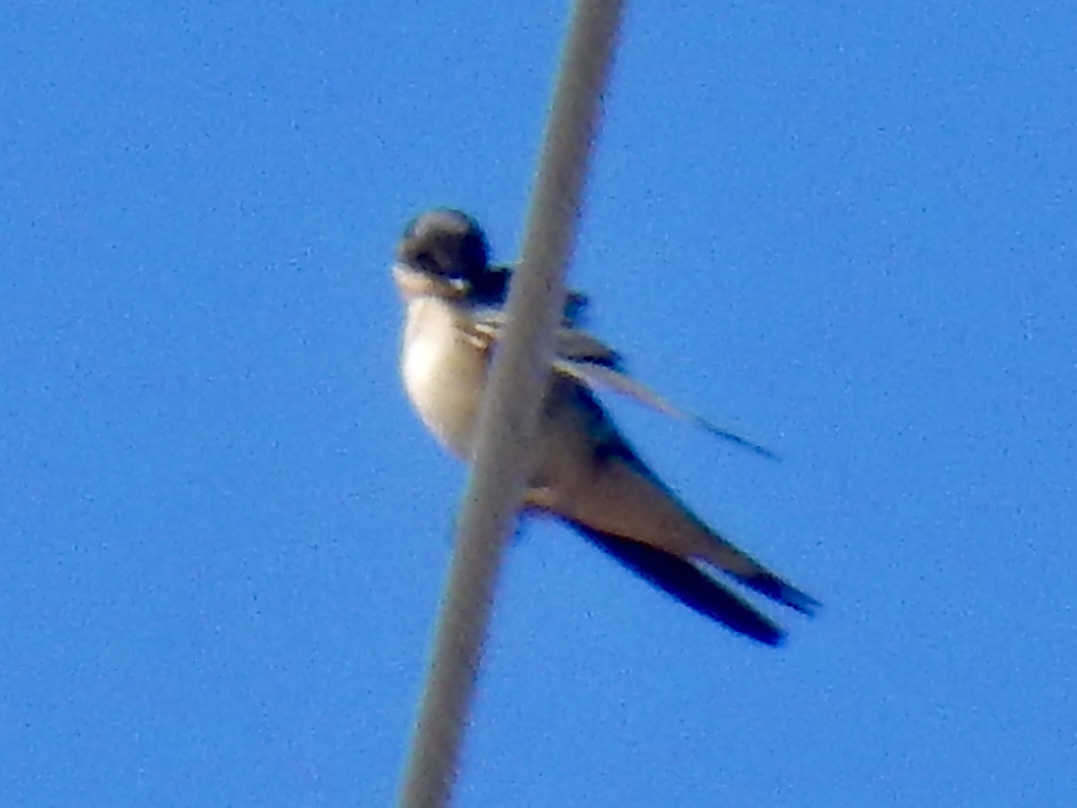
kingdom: Animalia
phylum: Chordata
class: Aves
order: Passeriformes
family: Hirundinidae
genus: Hirundo
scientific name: Hirundo rustica
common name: Barn swallow
